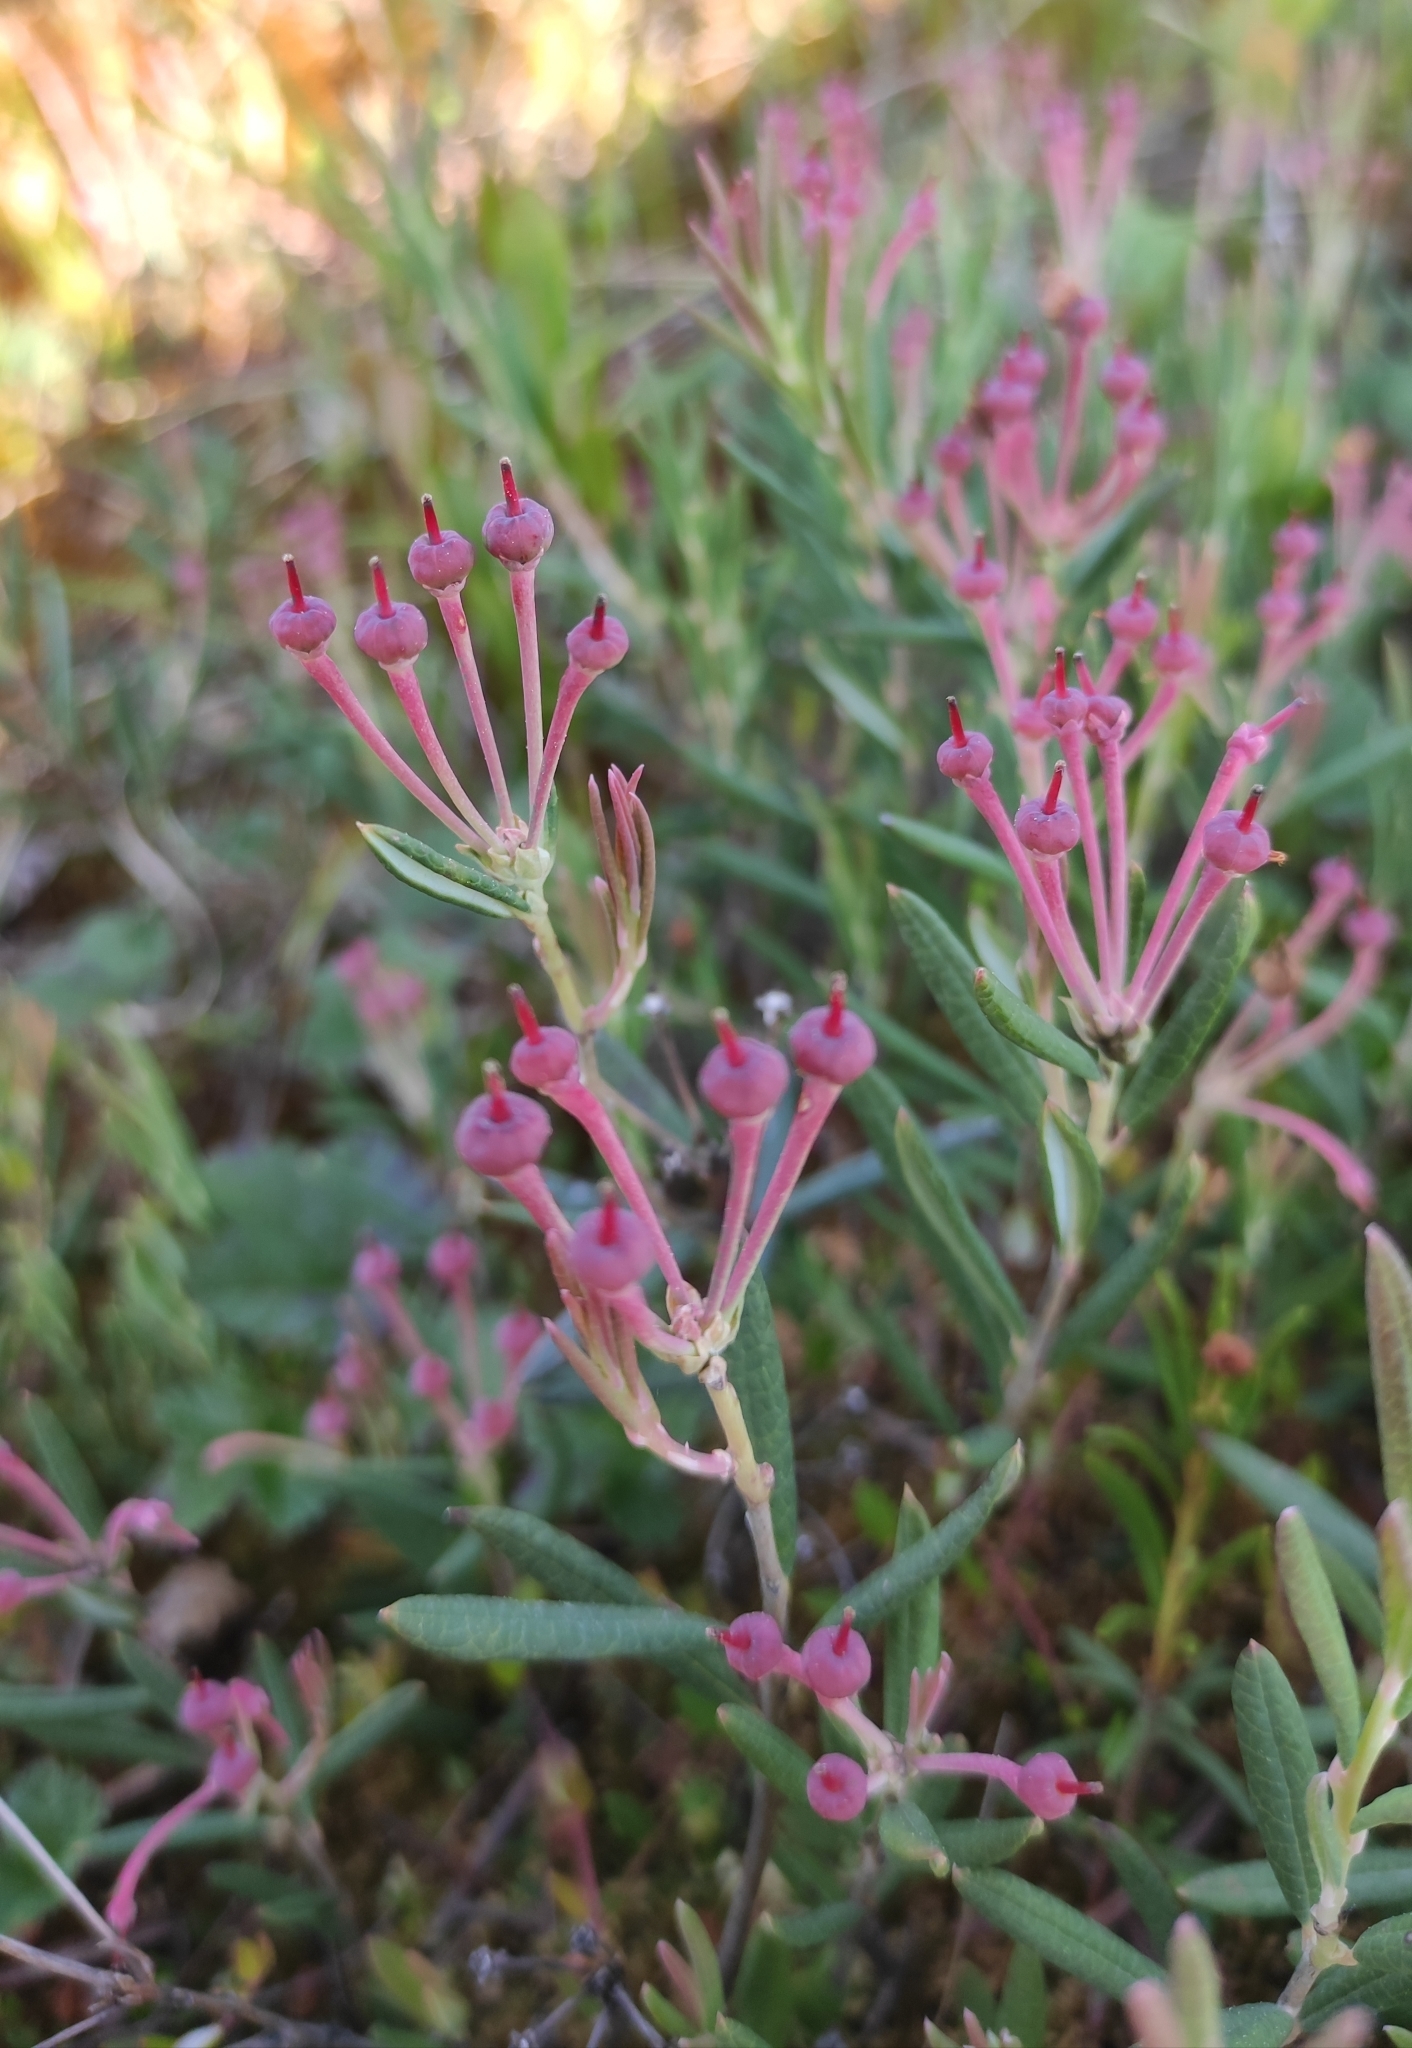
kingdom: Plantae
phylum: Tracheophyta
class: Magnoliopsida
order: Ericales
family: Ericaceae
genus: Andromeda
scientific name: Andromeda polifolia
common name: Bog-rosemary
